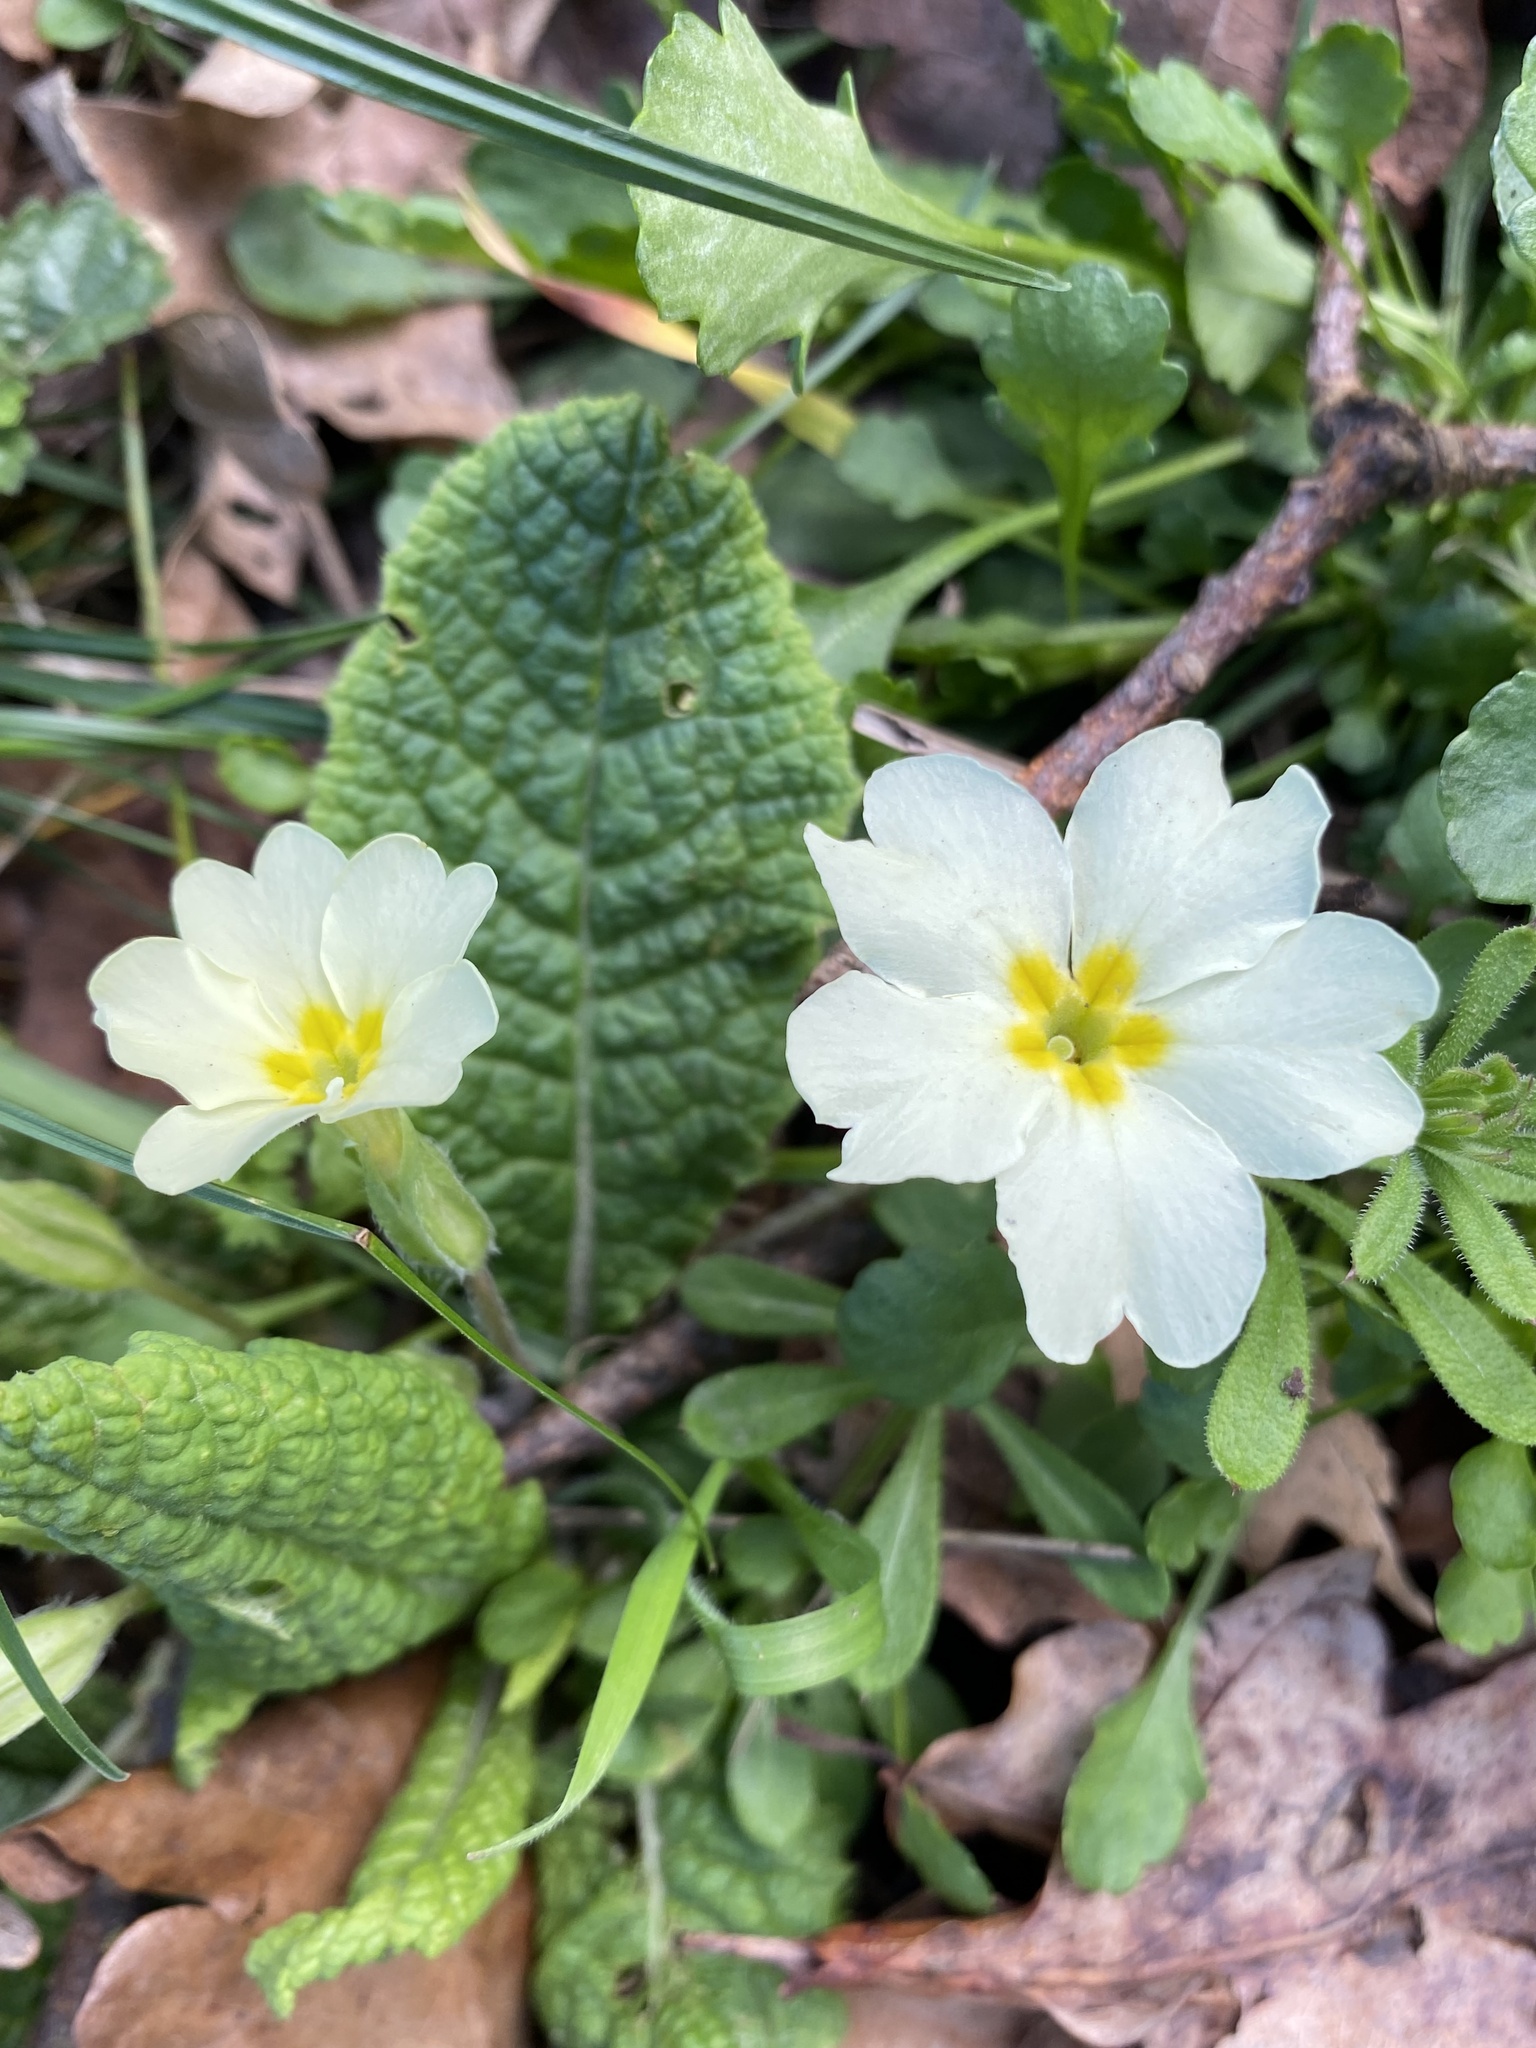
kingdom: Plantae
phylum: Tracheophyta
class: Magnoliopsida
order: Ericales
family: Primulaceae
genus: Primula
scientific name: Primula vulgaris
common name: Primrose
